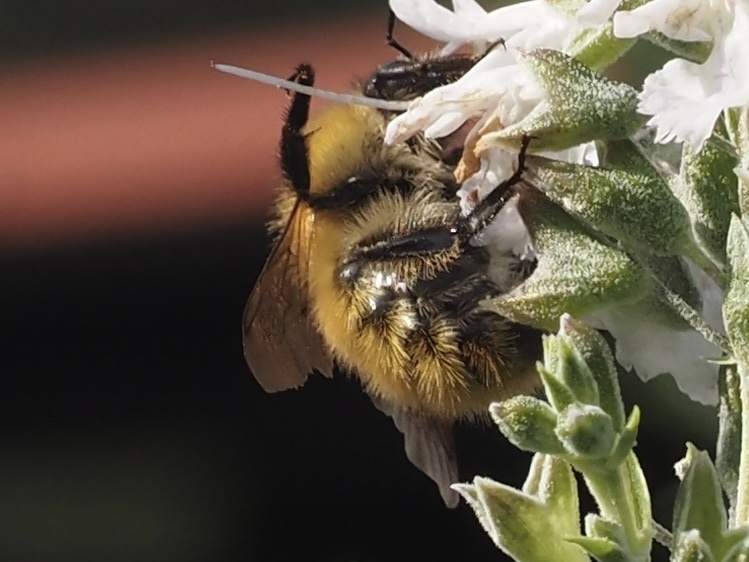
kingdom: Animalia
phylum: Arthropoda
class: Insecta
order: Hymenoptera
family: Apidae
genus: Bombus
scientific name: Bombus pascuorum
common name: Common carder bee
